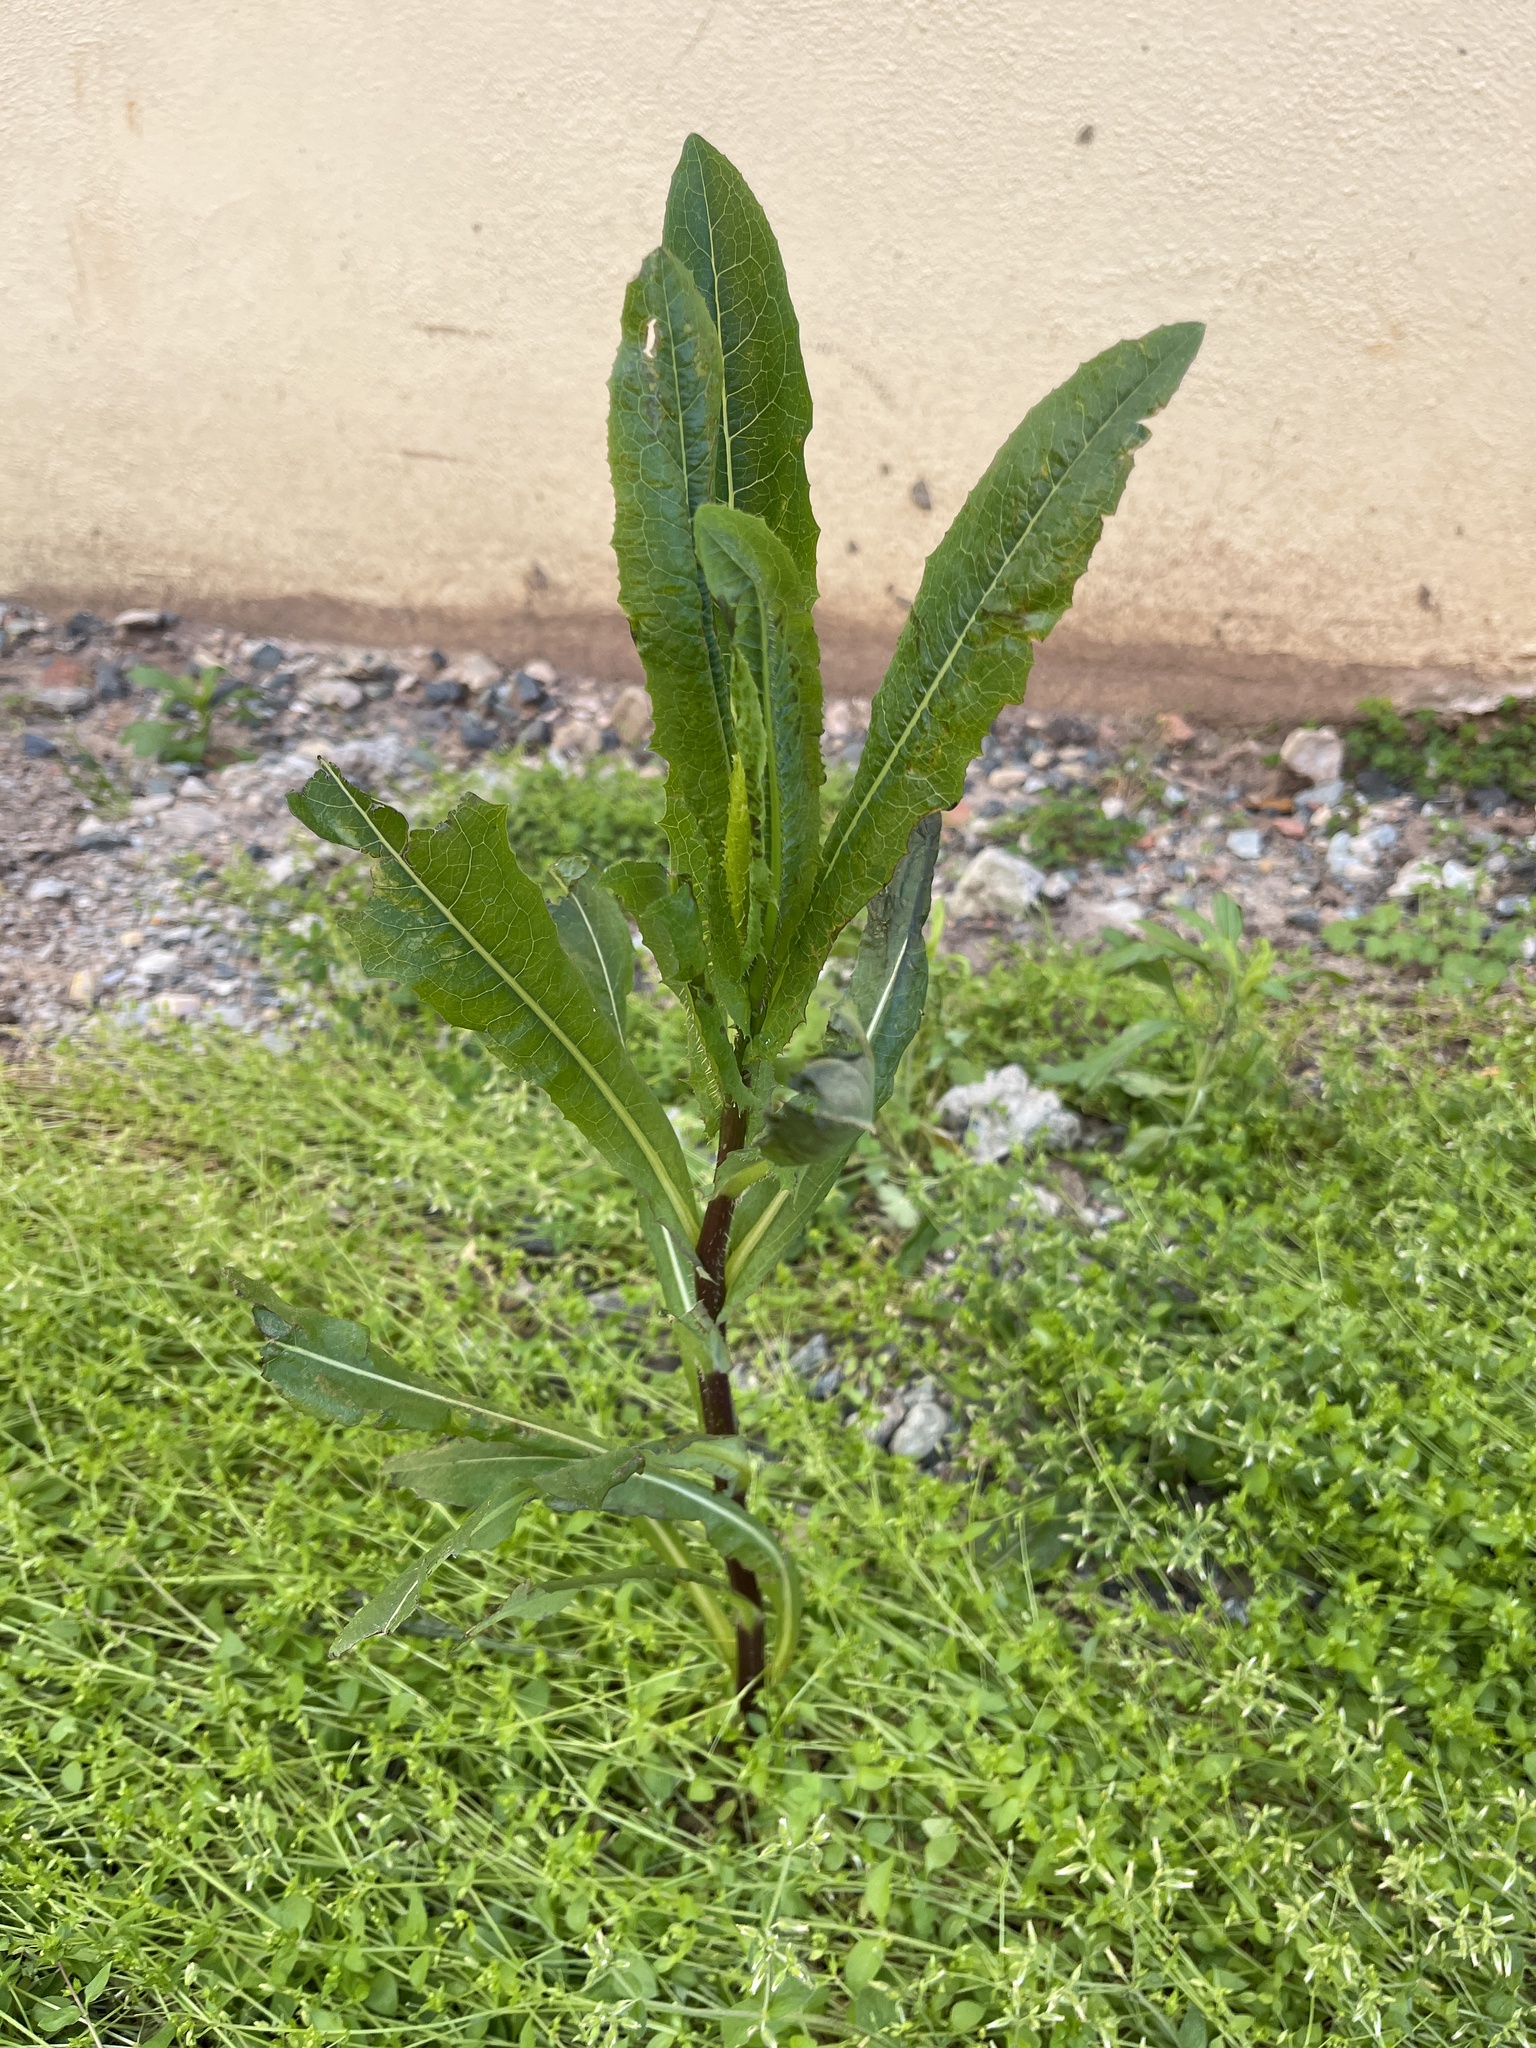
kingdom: Plantae
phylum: Tracheophyta
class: Magnoliopsida
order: Asterales
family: Asteraceae
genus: Lactuca
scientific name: Lactuca serriola
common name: Prickly lettuce
